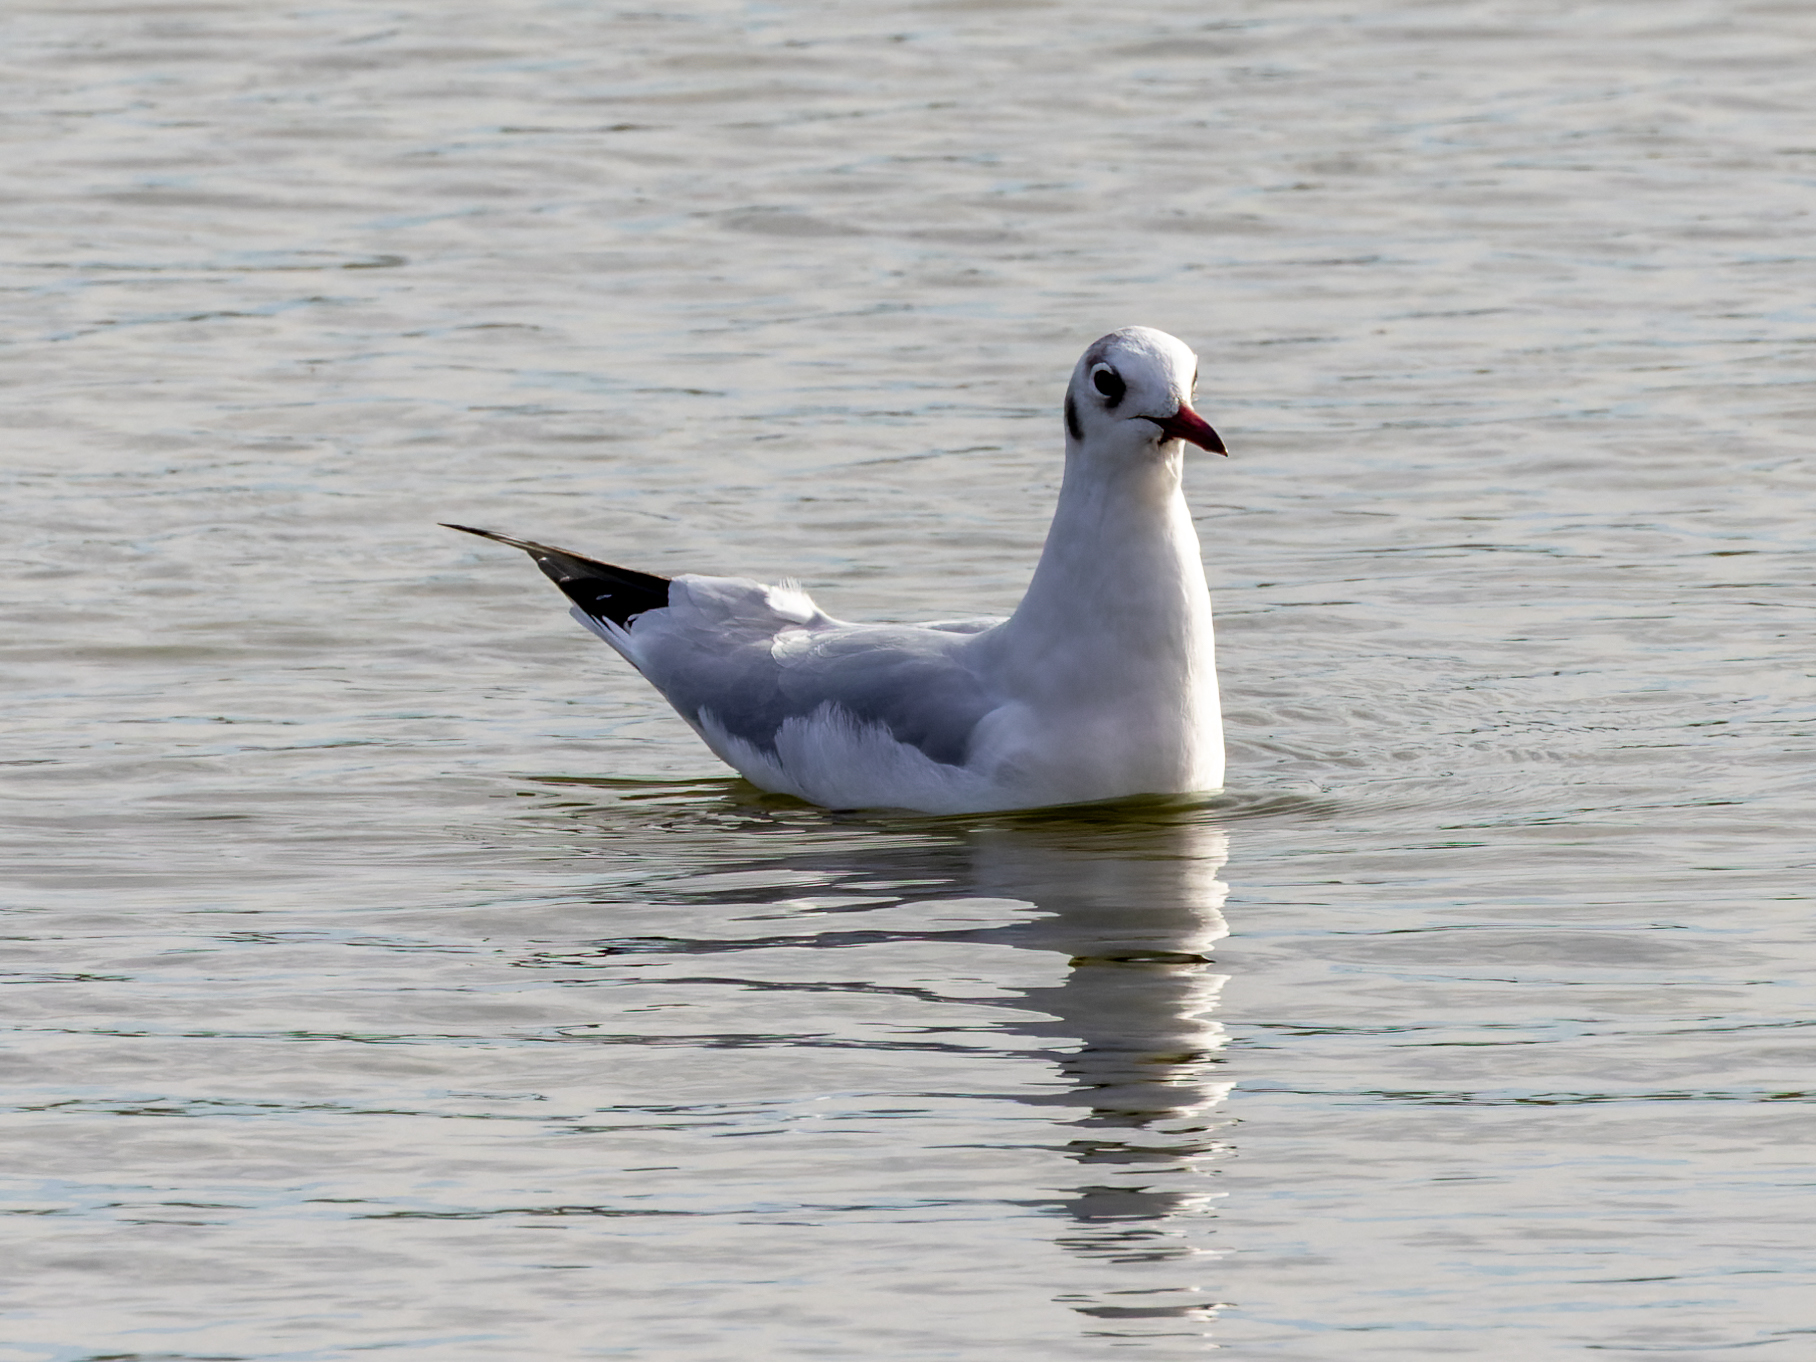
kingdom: Animalia
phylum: Chordata
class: Aves
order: Charadriiformes
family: Laridae
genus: Chroicocephalus
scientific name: Chroicocephalus ridibundus
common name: Black-headed gull
